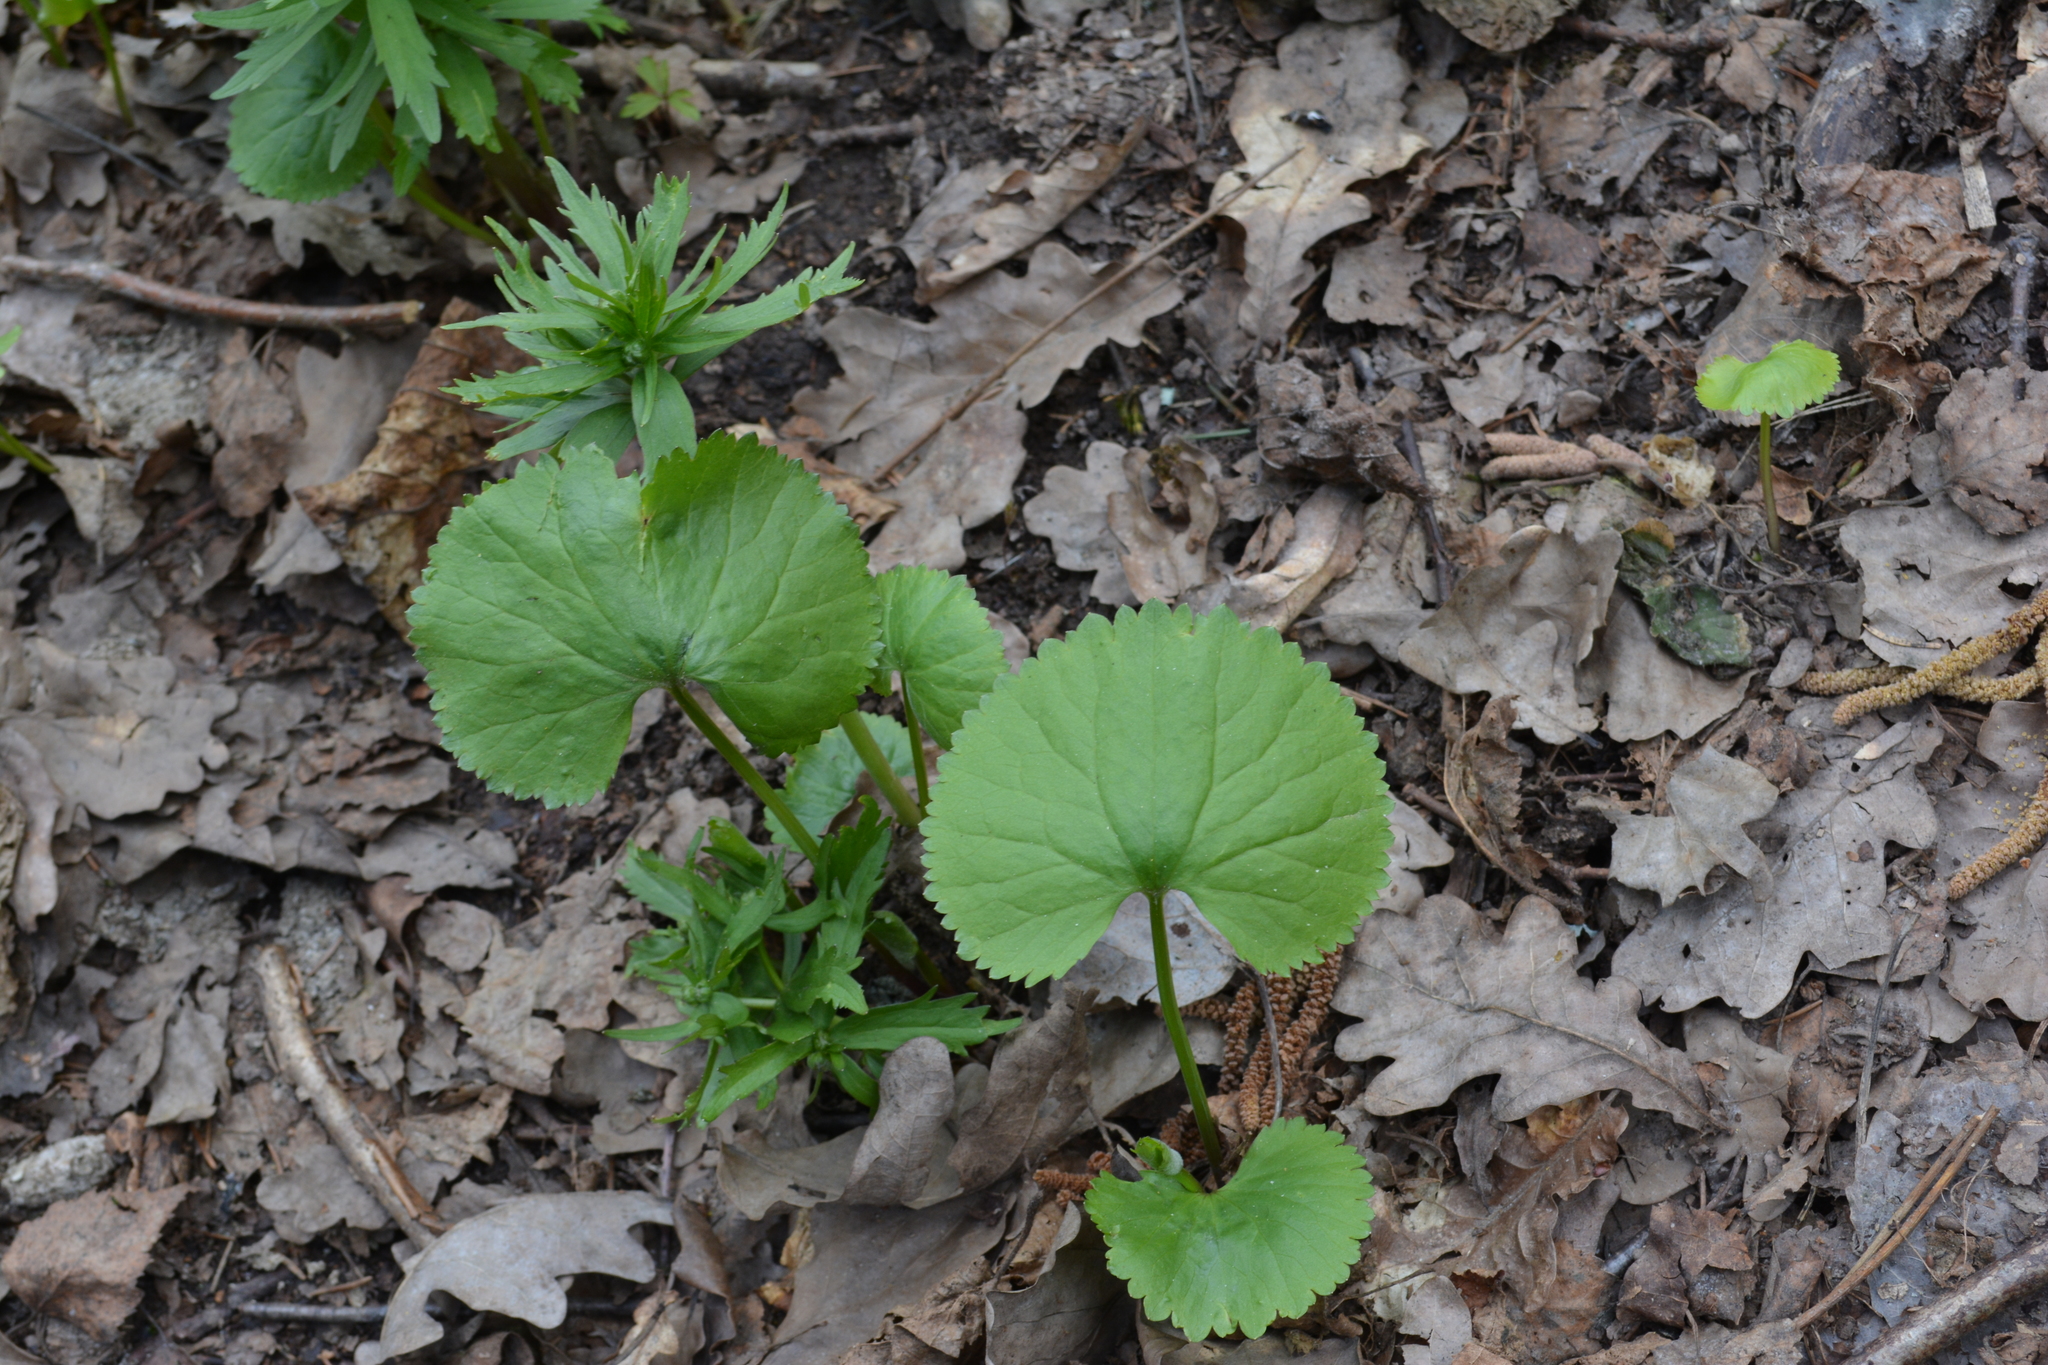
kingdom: Plantae
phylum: Tracheophyta
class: Magnoliopsida
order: Ranunculales
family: Ranunculaceae
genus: Ranunculus
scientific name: Ranunculus cassubicus
